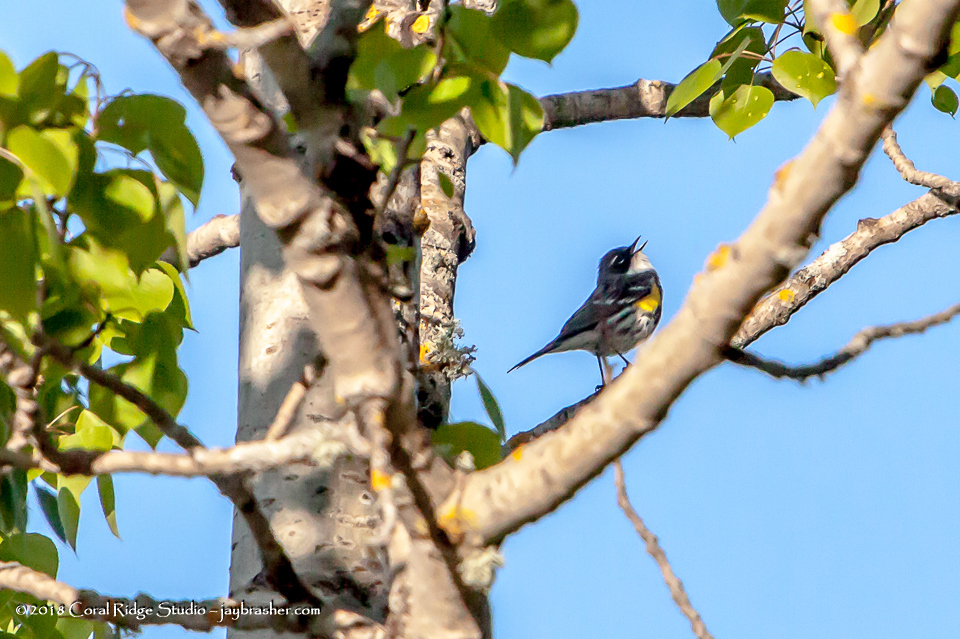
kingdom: Animalia
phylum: Chordata
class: Aves
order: Passeriformes
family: Parulidae
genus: Setophaga
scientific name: Setophaga coronata
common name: Myrtle warbler
